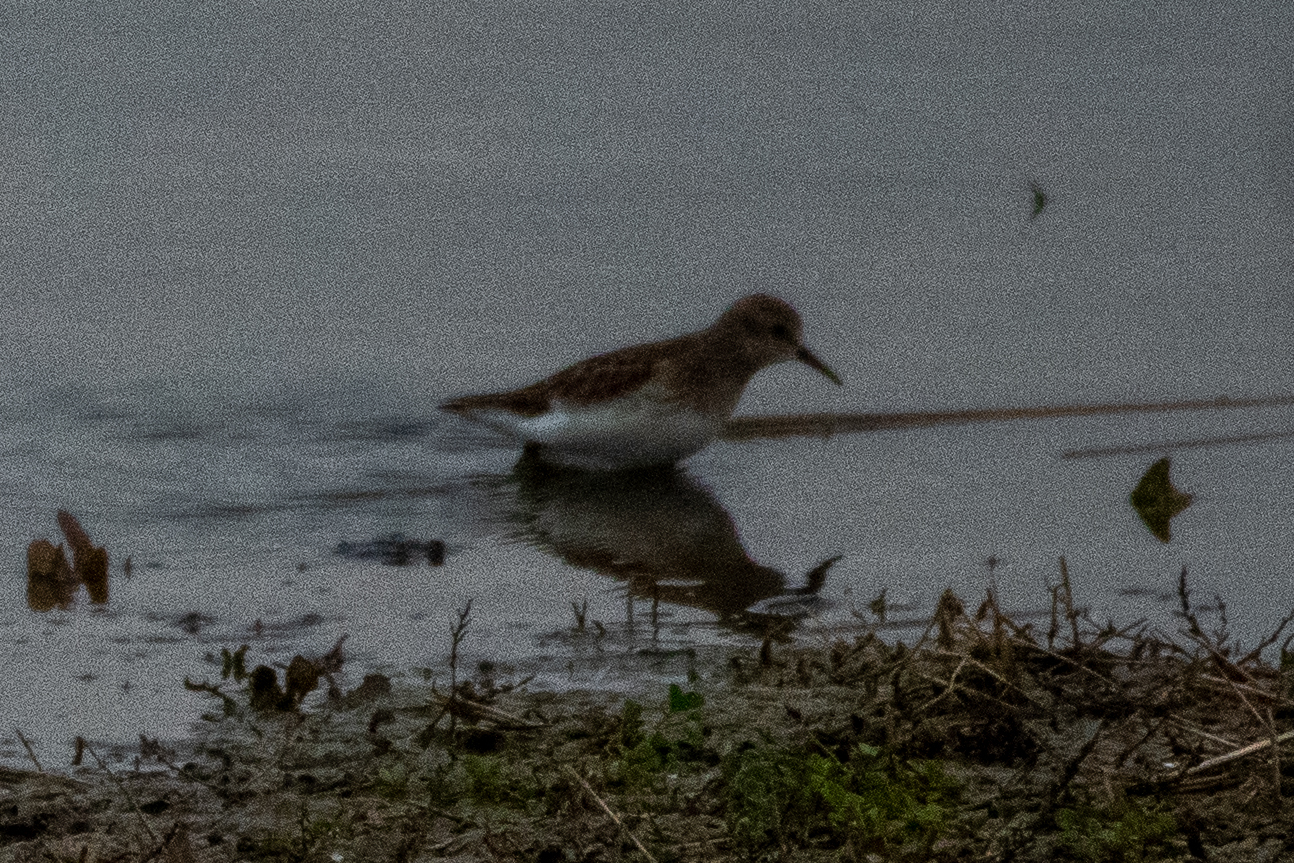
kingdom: Animalia
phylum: Chordata
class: Aves
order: Charadriiformes
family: Scolopacidae
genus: Calidris
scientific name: Calidris minutilla
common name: Least sandpiper
